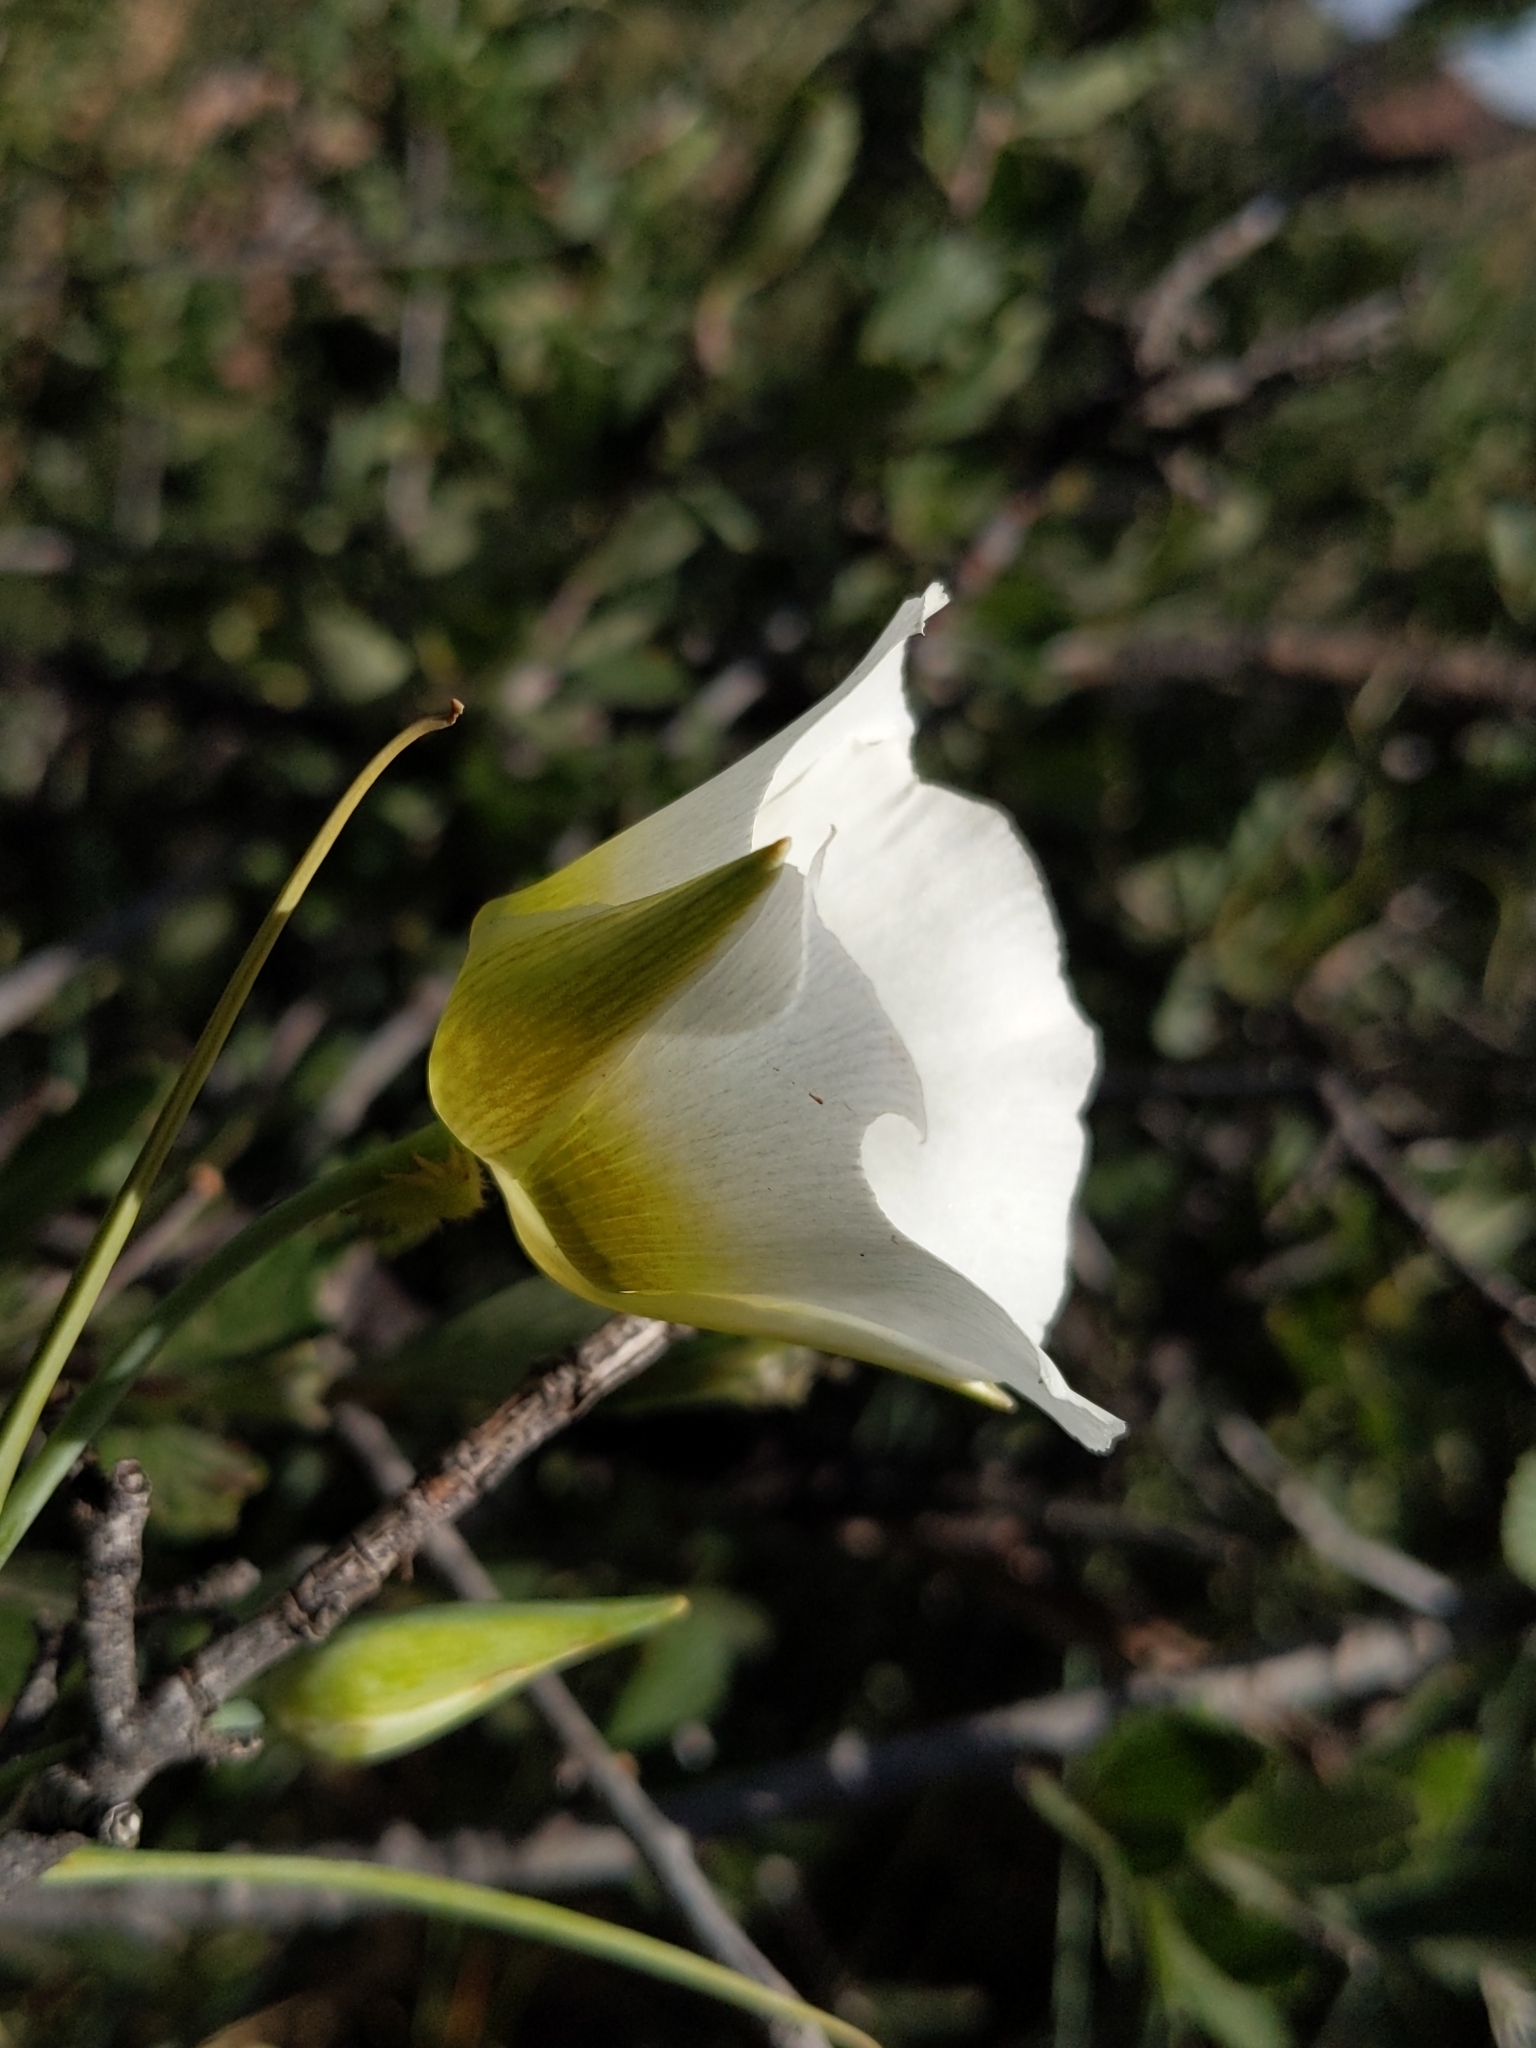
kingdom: Plantae
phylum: Tracheophyta
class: Liliopsida
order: Liliales
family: Liliaceae
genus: Calochortus
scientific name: Calochortus gunnisonii
